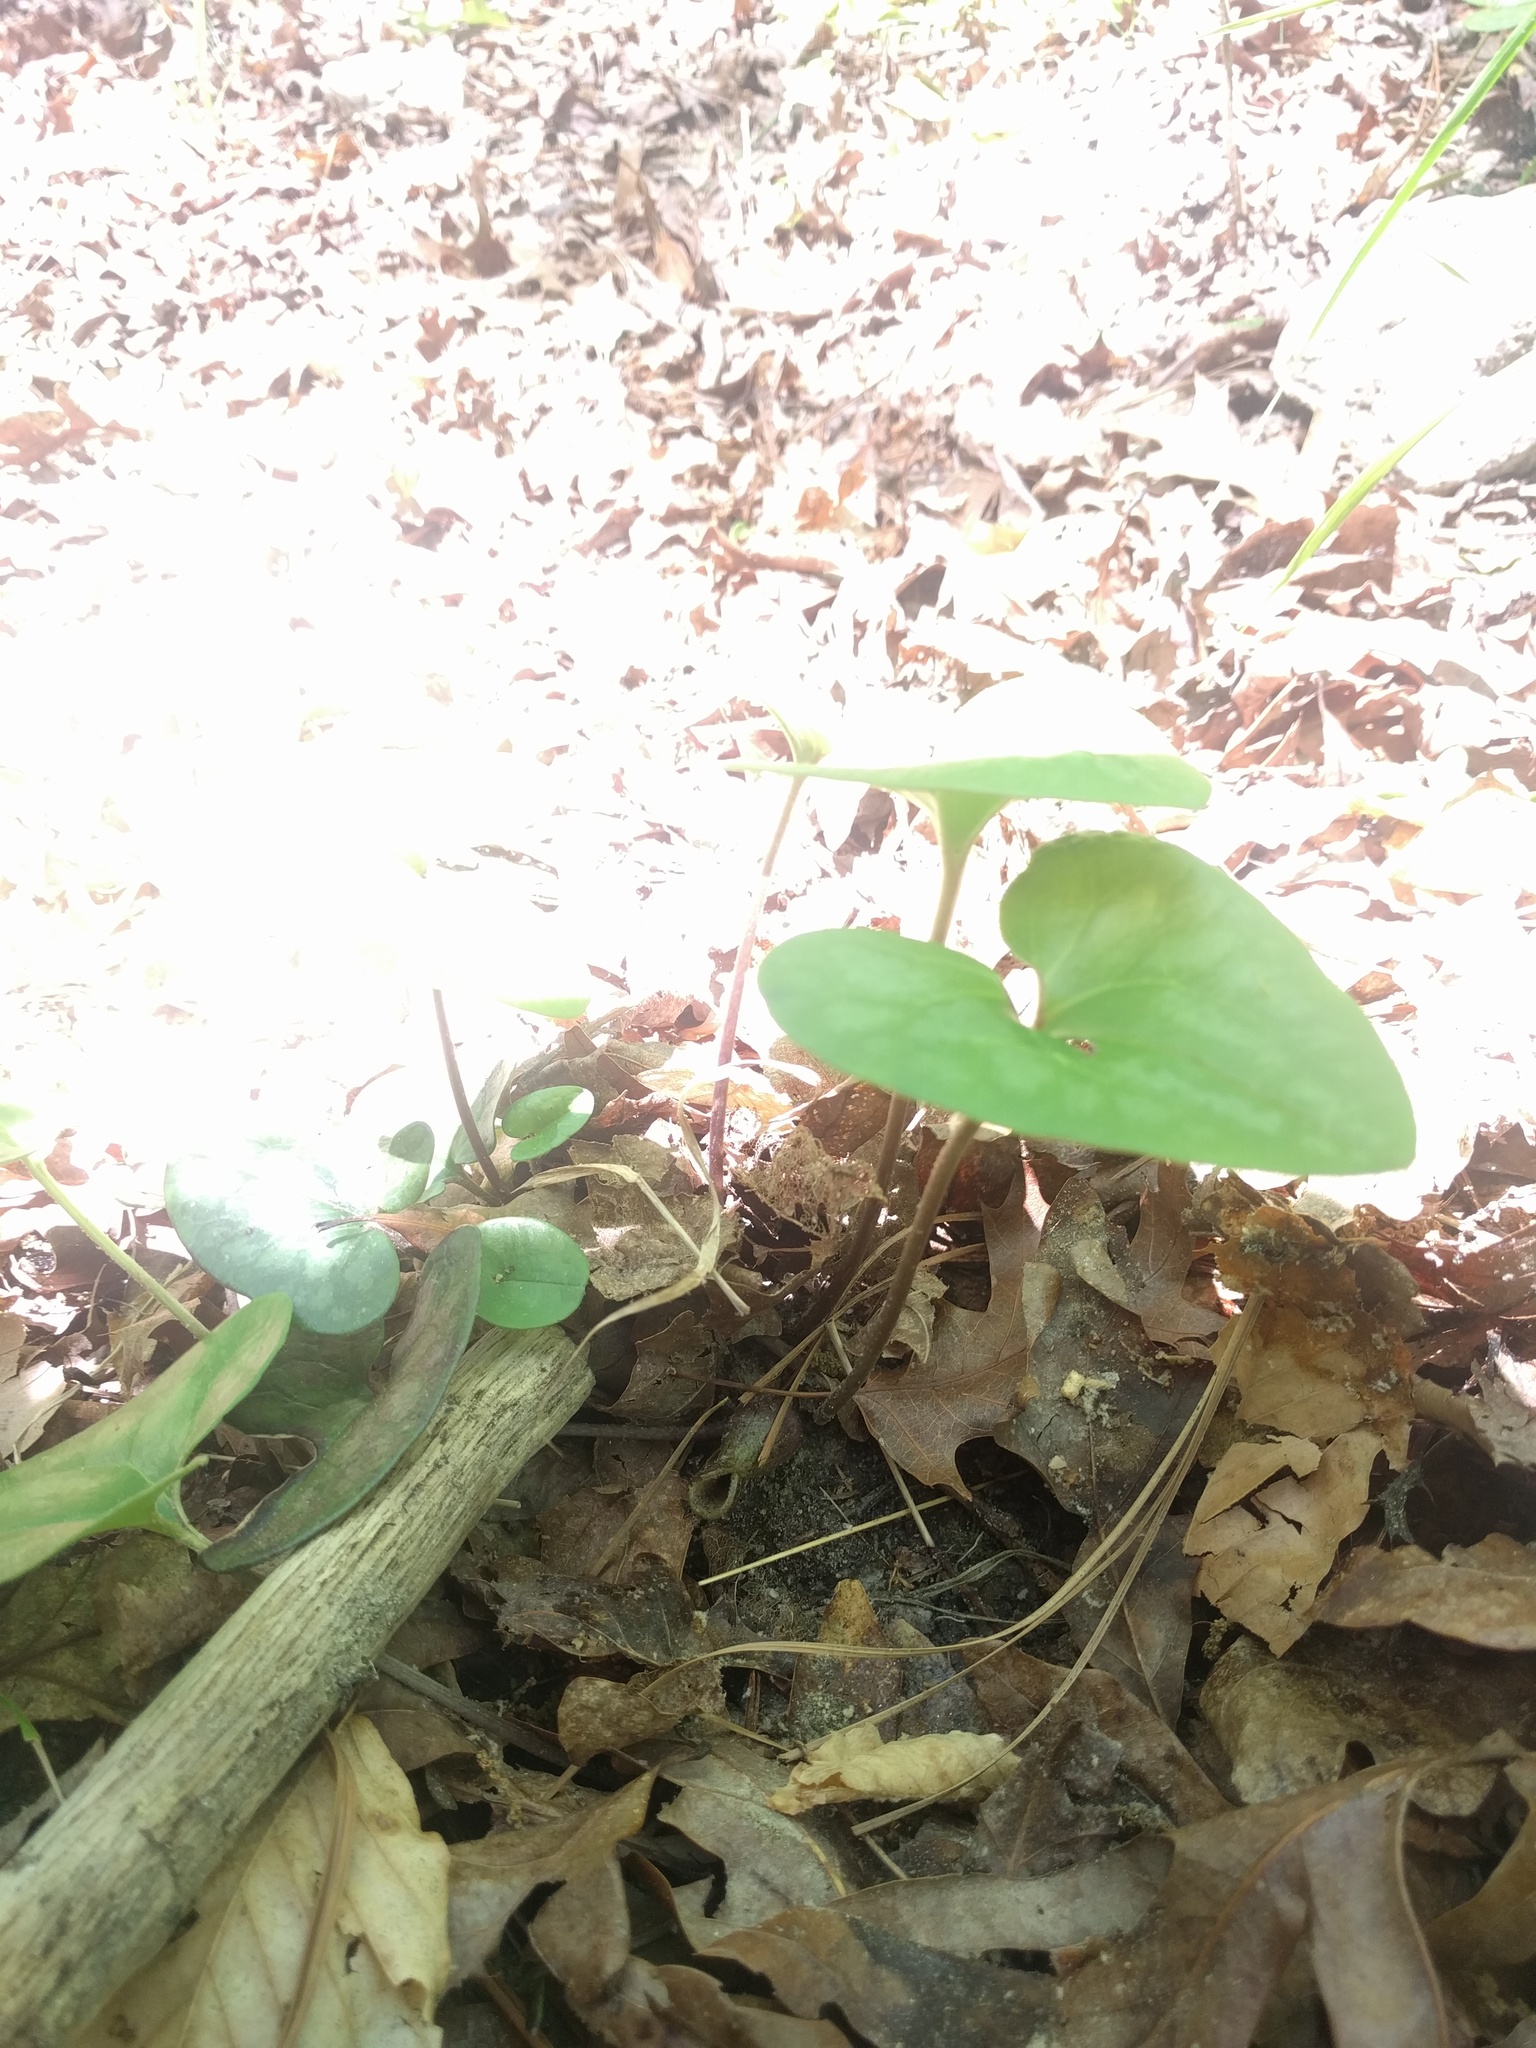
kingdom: Plantae
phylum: Tracheophyta
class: Magnoliopsida
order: Piperales
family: Aristolochiaceae
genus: Hexastylis
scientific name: Hexastylis arifolia
